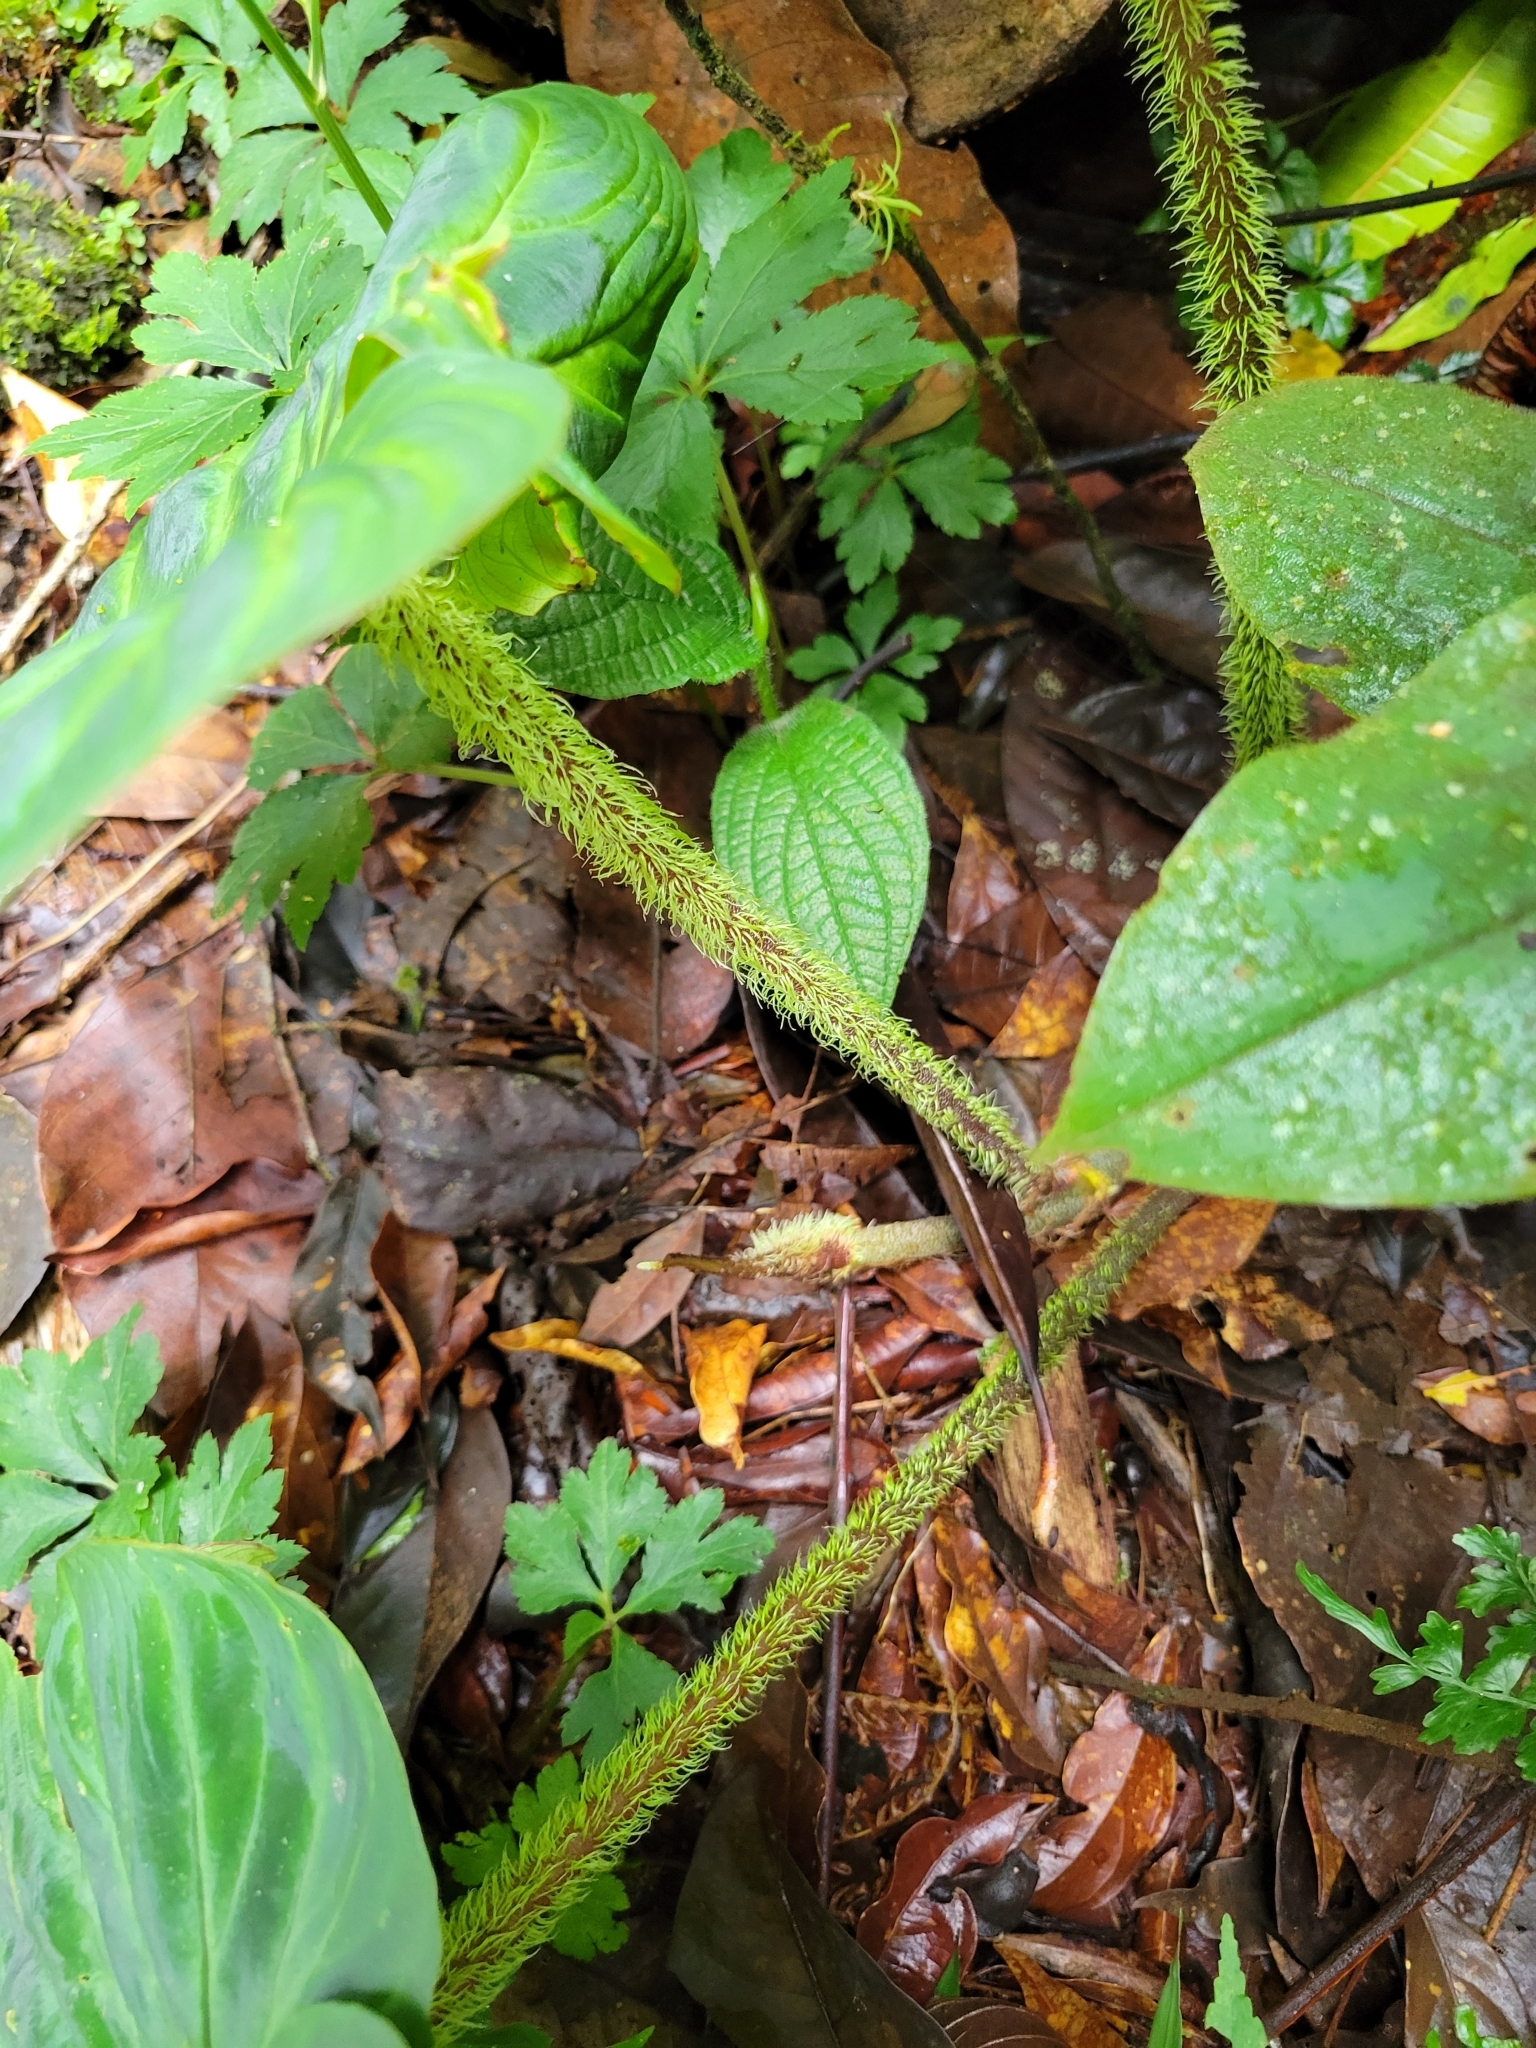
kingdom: Plantae
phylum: Tracheophyta
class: Liliopsida
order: Alismatales
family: Araceae
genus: Philodendron
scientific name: Philodendron verrucosum
